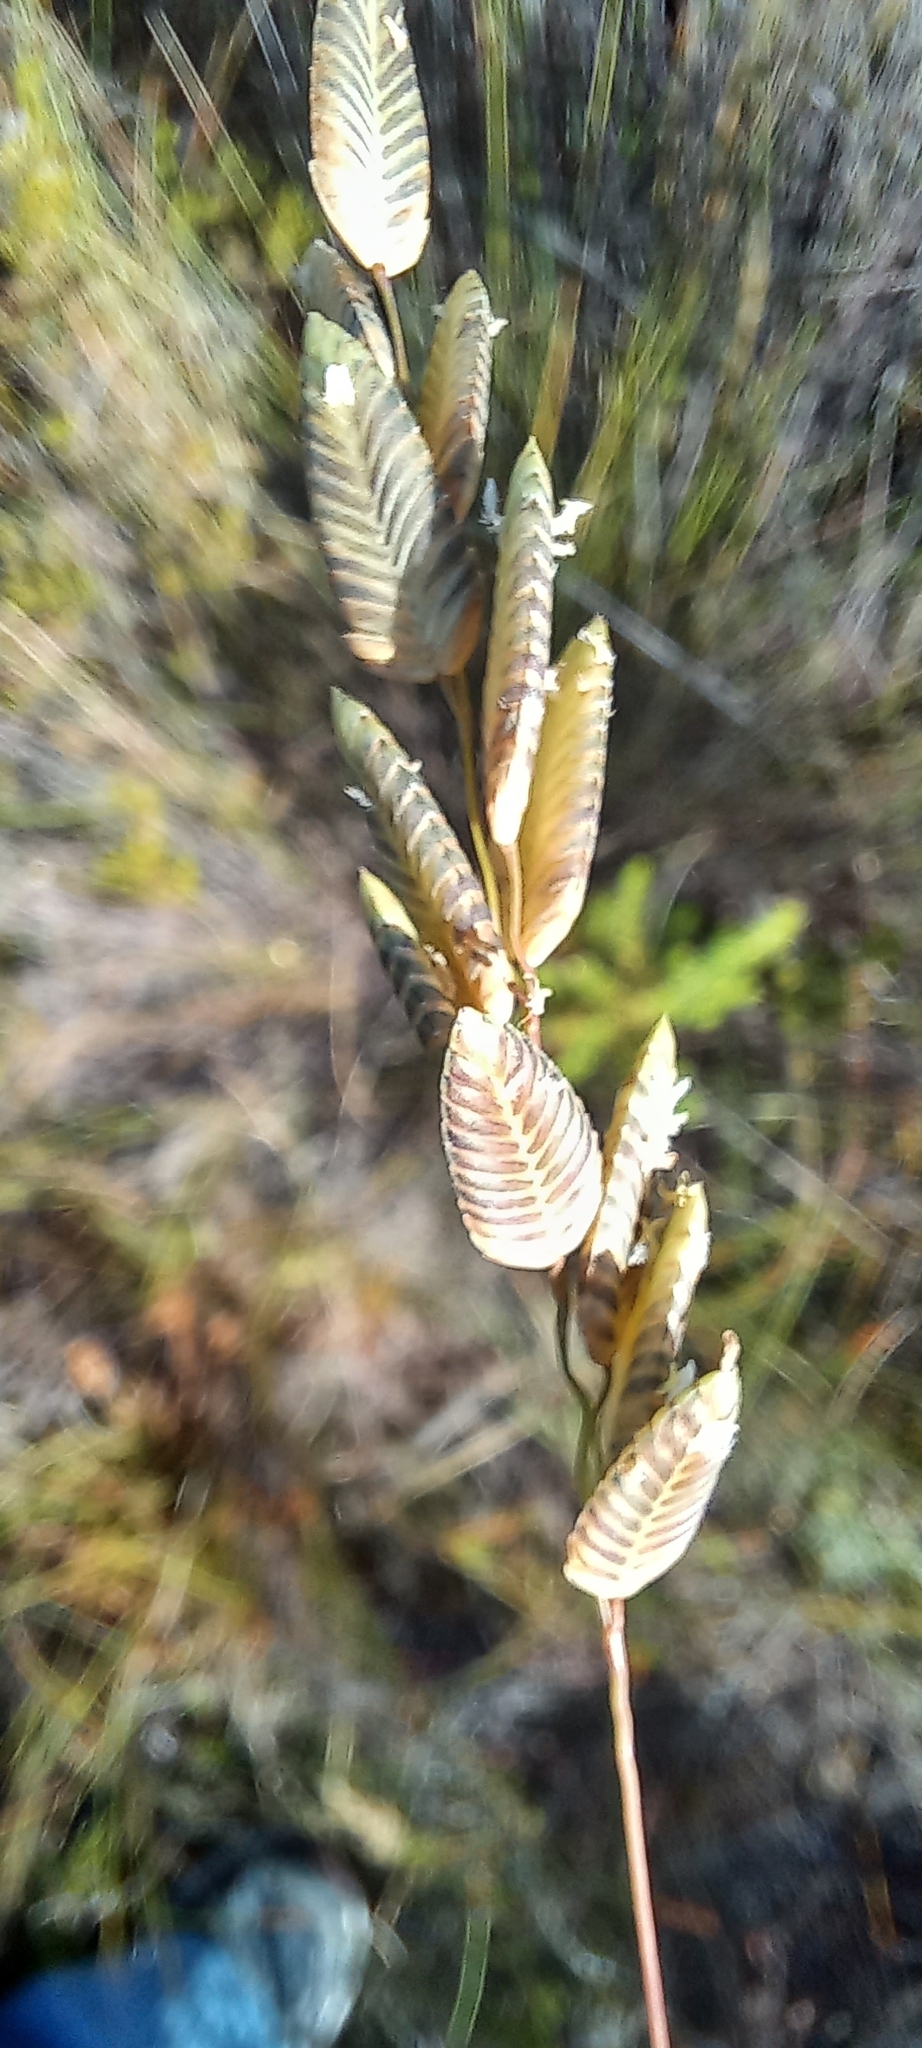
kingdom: Plantae
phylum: Tracheophyta
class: Liliopsida
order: Poales
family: Poaceae
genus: Eragrostis
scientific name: Eragrostis capensis
